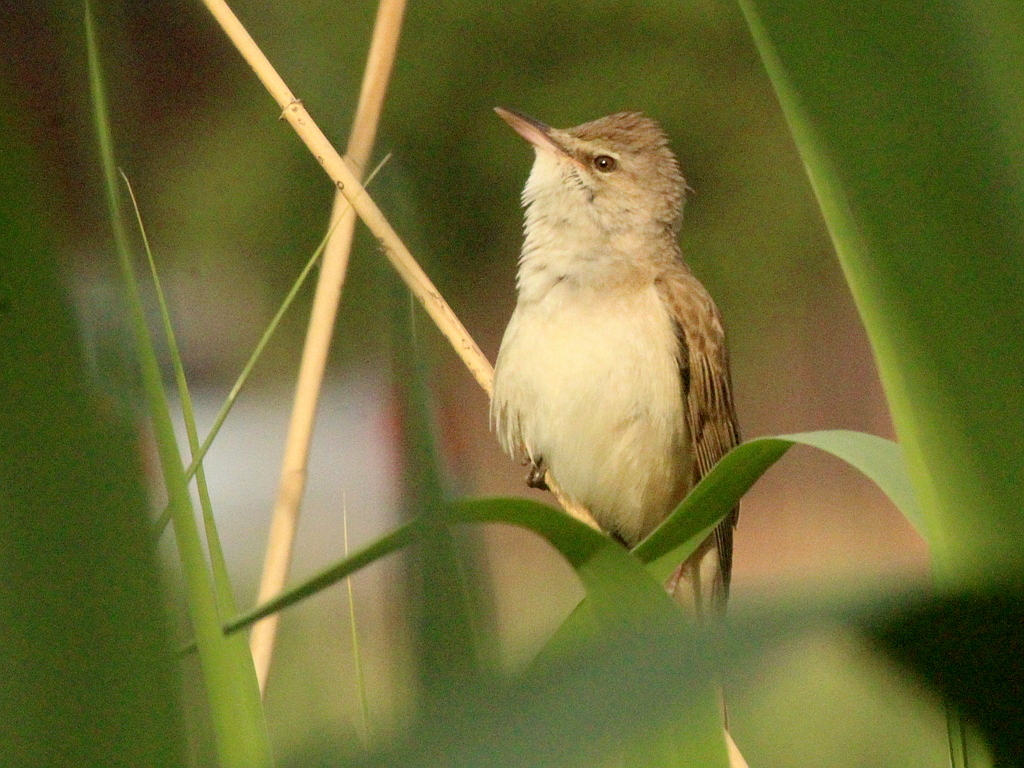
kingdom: Animalia
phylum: Chordata
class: Aves
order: Passeriformes
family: Acrocephalidae
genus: Acrocephalus
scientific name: Acrocephalus arundinaceus
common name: Great reed warbler
